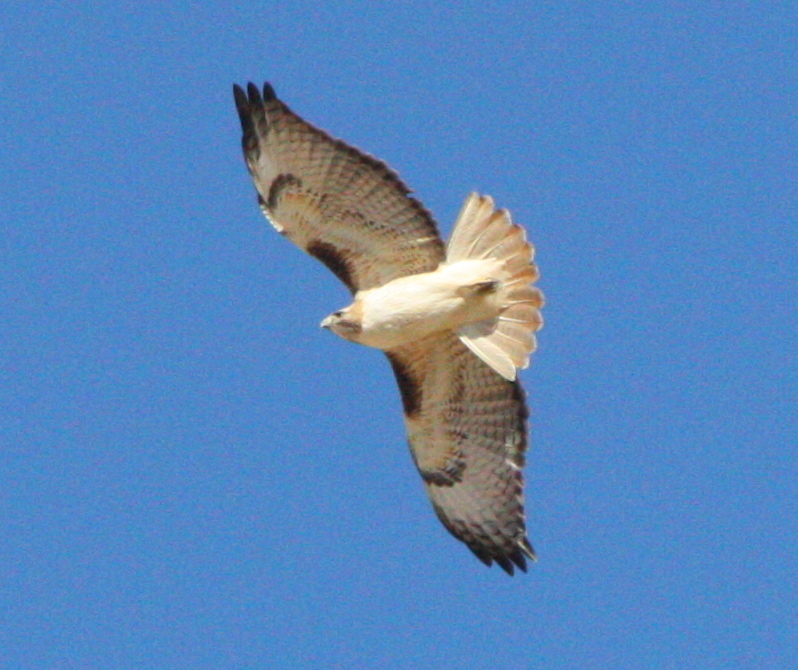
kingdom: Animalia
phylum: Chordata
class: Aves
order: Accipitriformes
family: Accipitridae
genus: Buteo
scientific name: Buteo jamaicensis
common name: Red-tailed hawk
